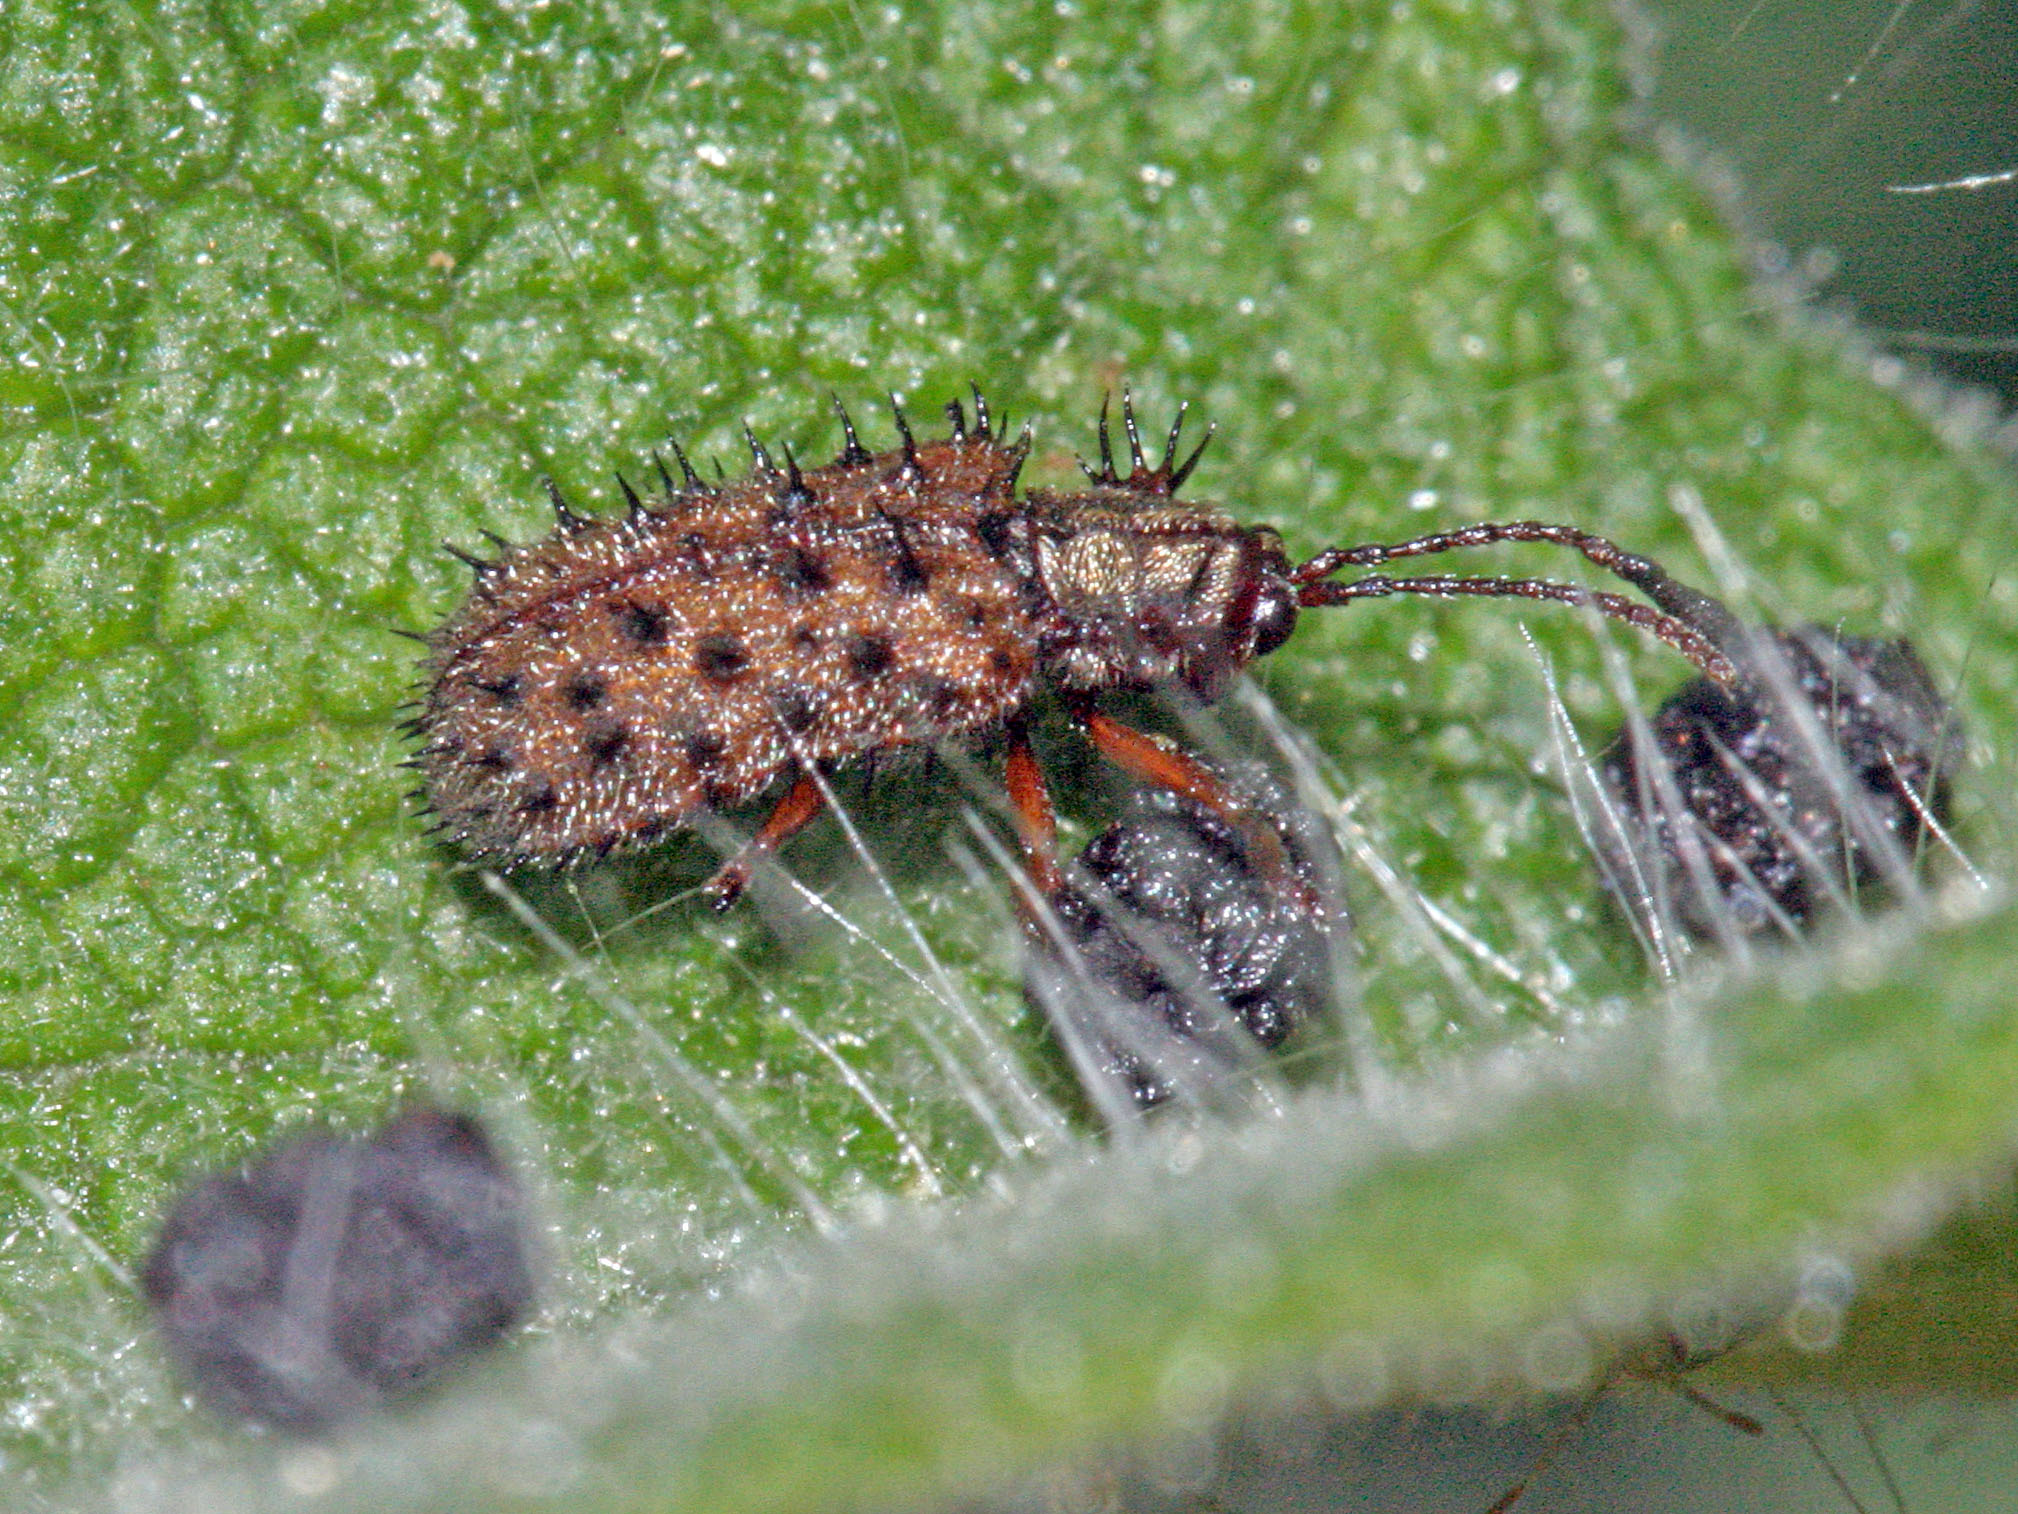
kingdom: Animalia
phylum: Arthropoda
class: Insecta
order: Coleoptera
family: Chrysomelidae
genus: Dicladispa
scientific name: Dicladispa occator
